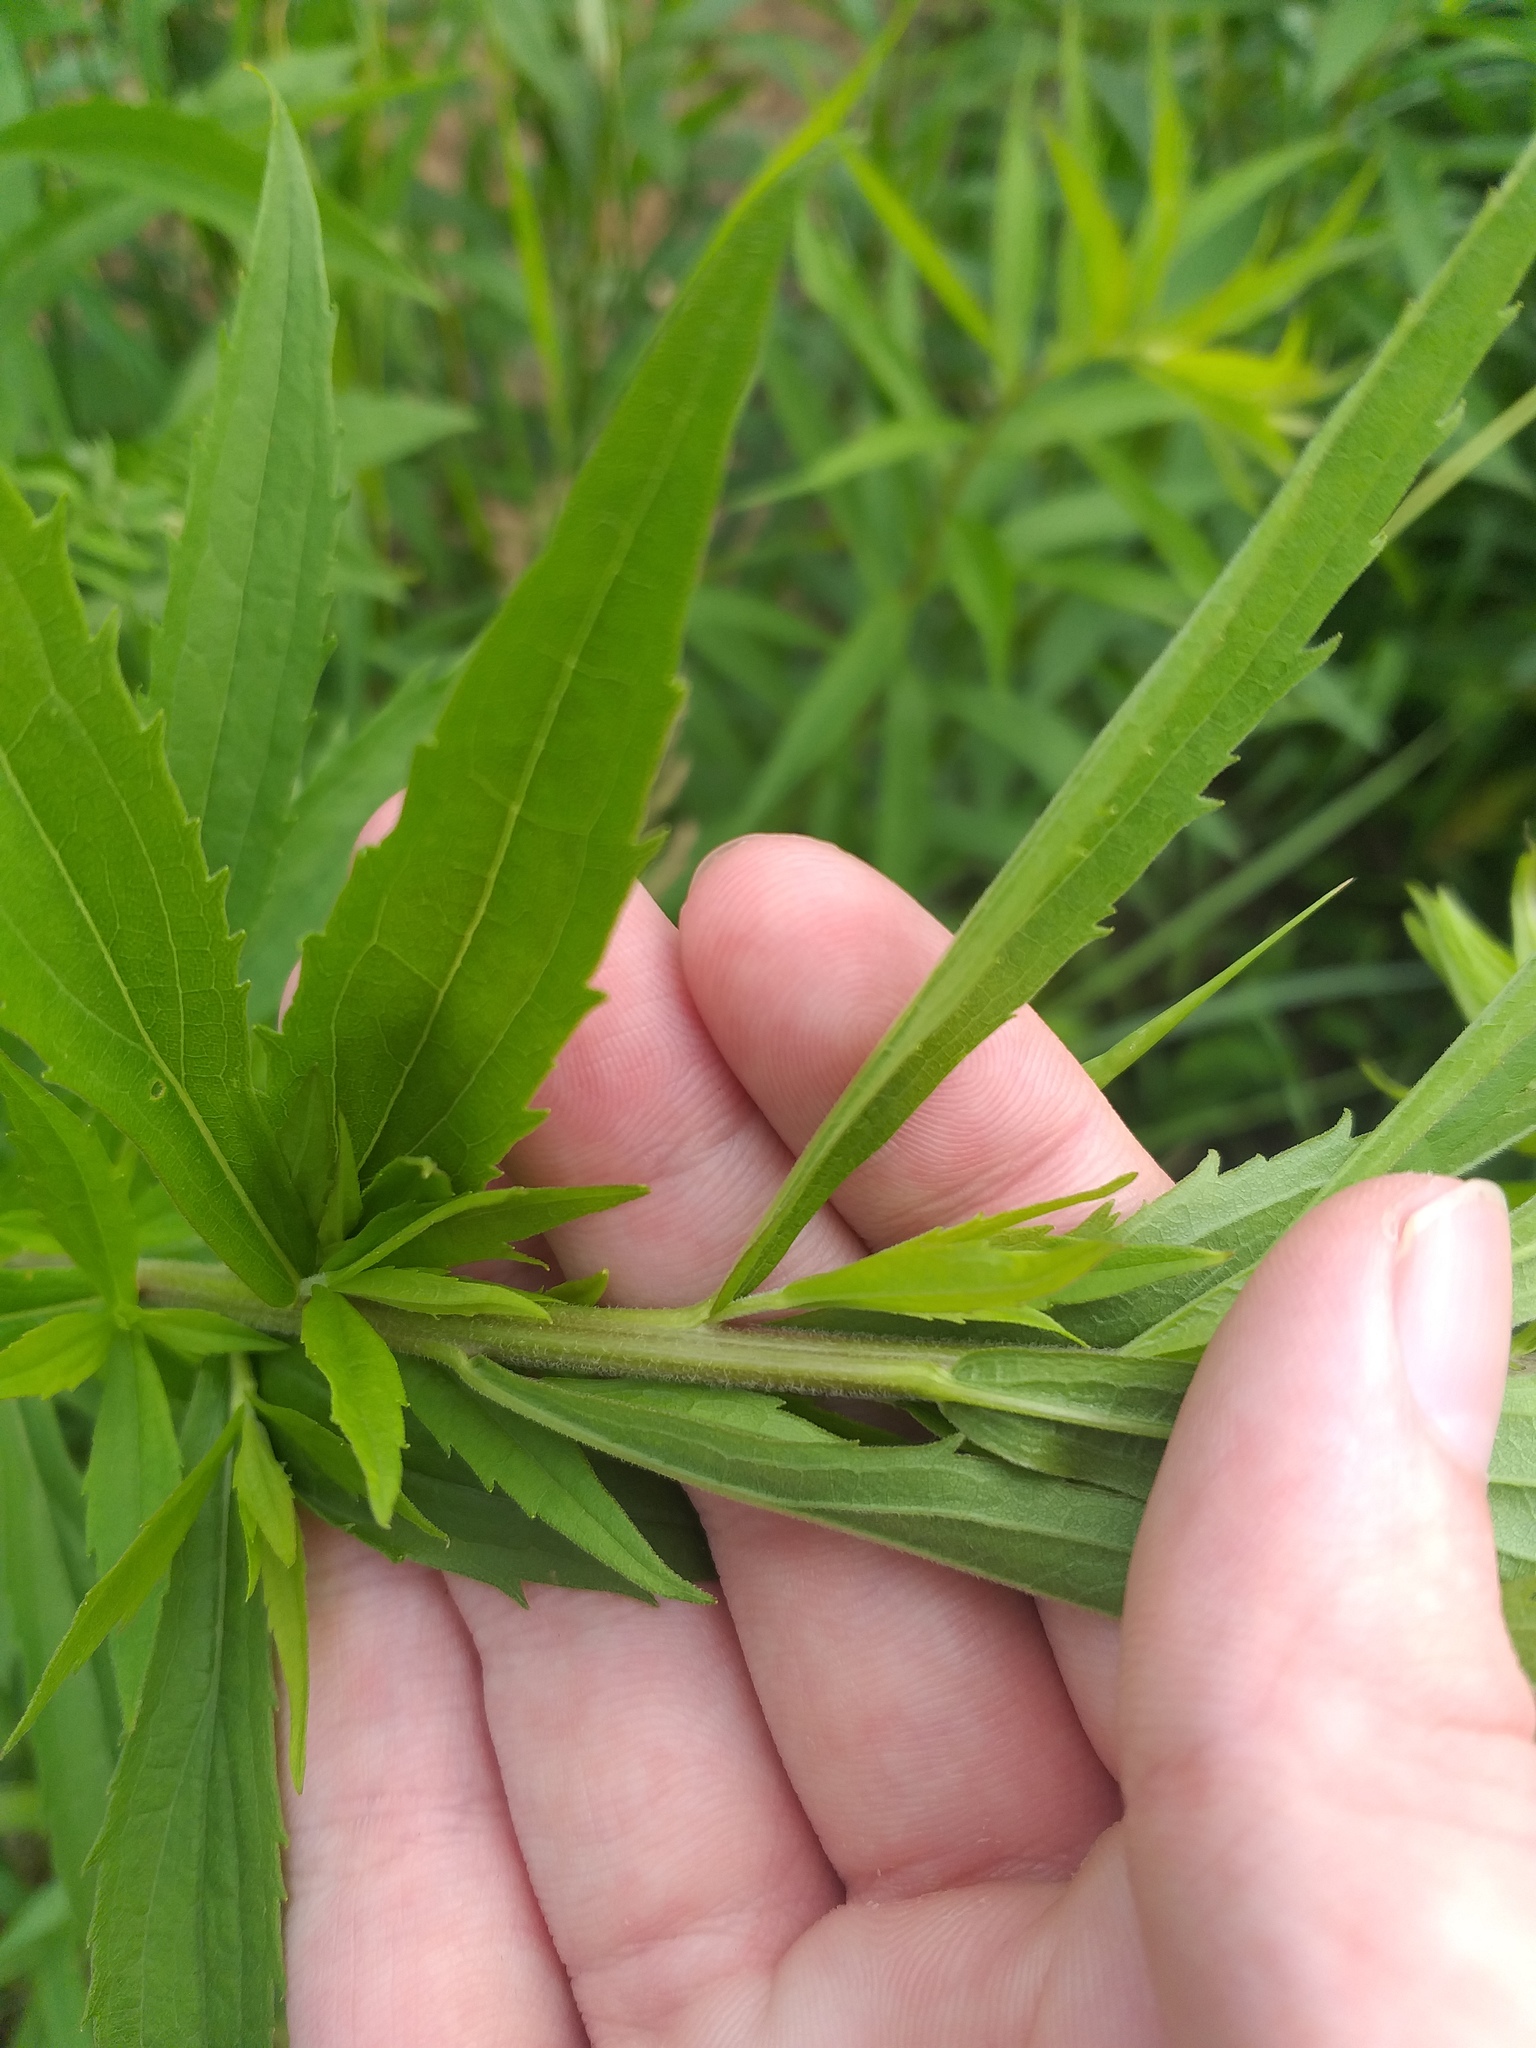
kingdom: Plantae
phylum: Tracheophyta
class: Magnoliopsida
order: Asterales
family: Asteraceae
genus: Solidago
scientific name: Solidago canadensis
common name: Canada goldenrod
